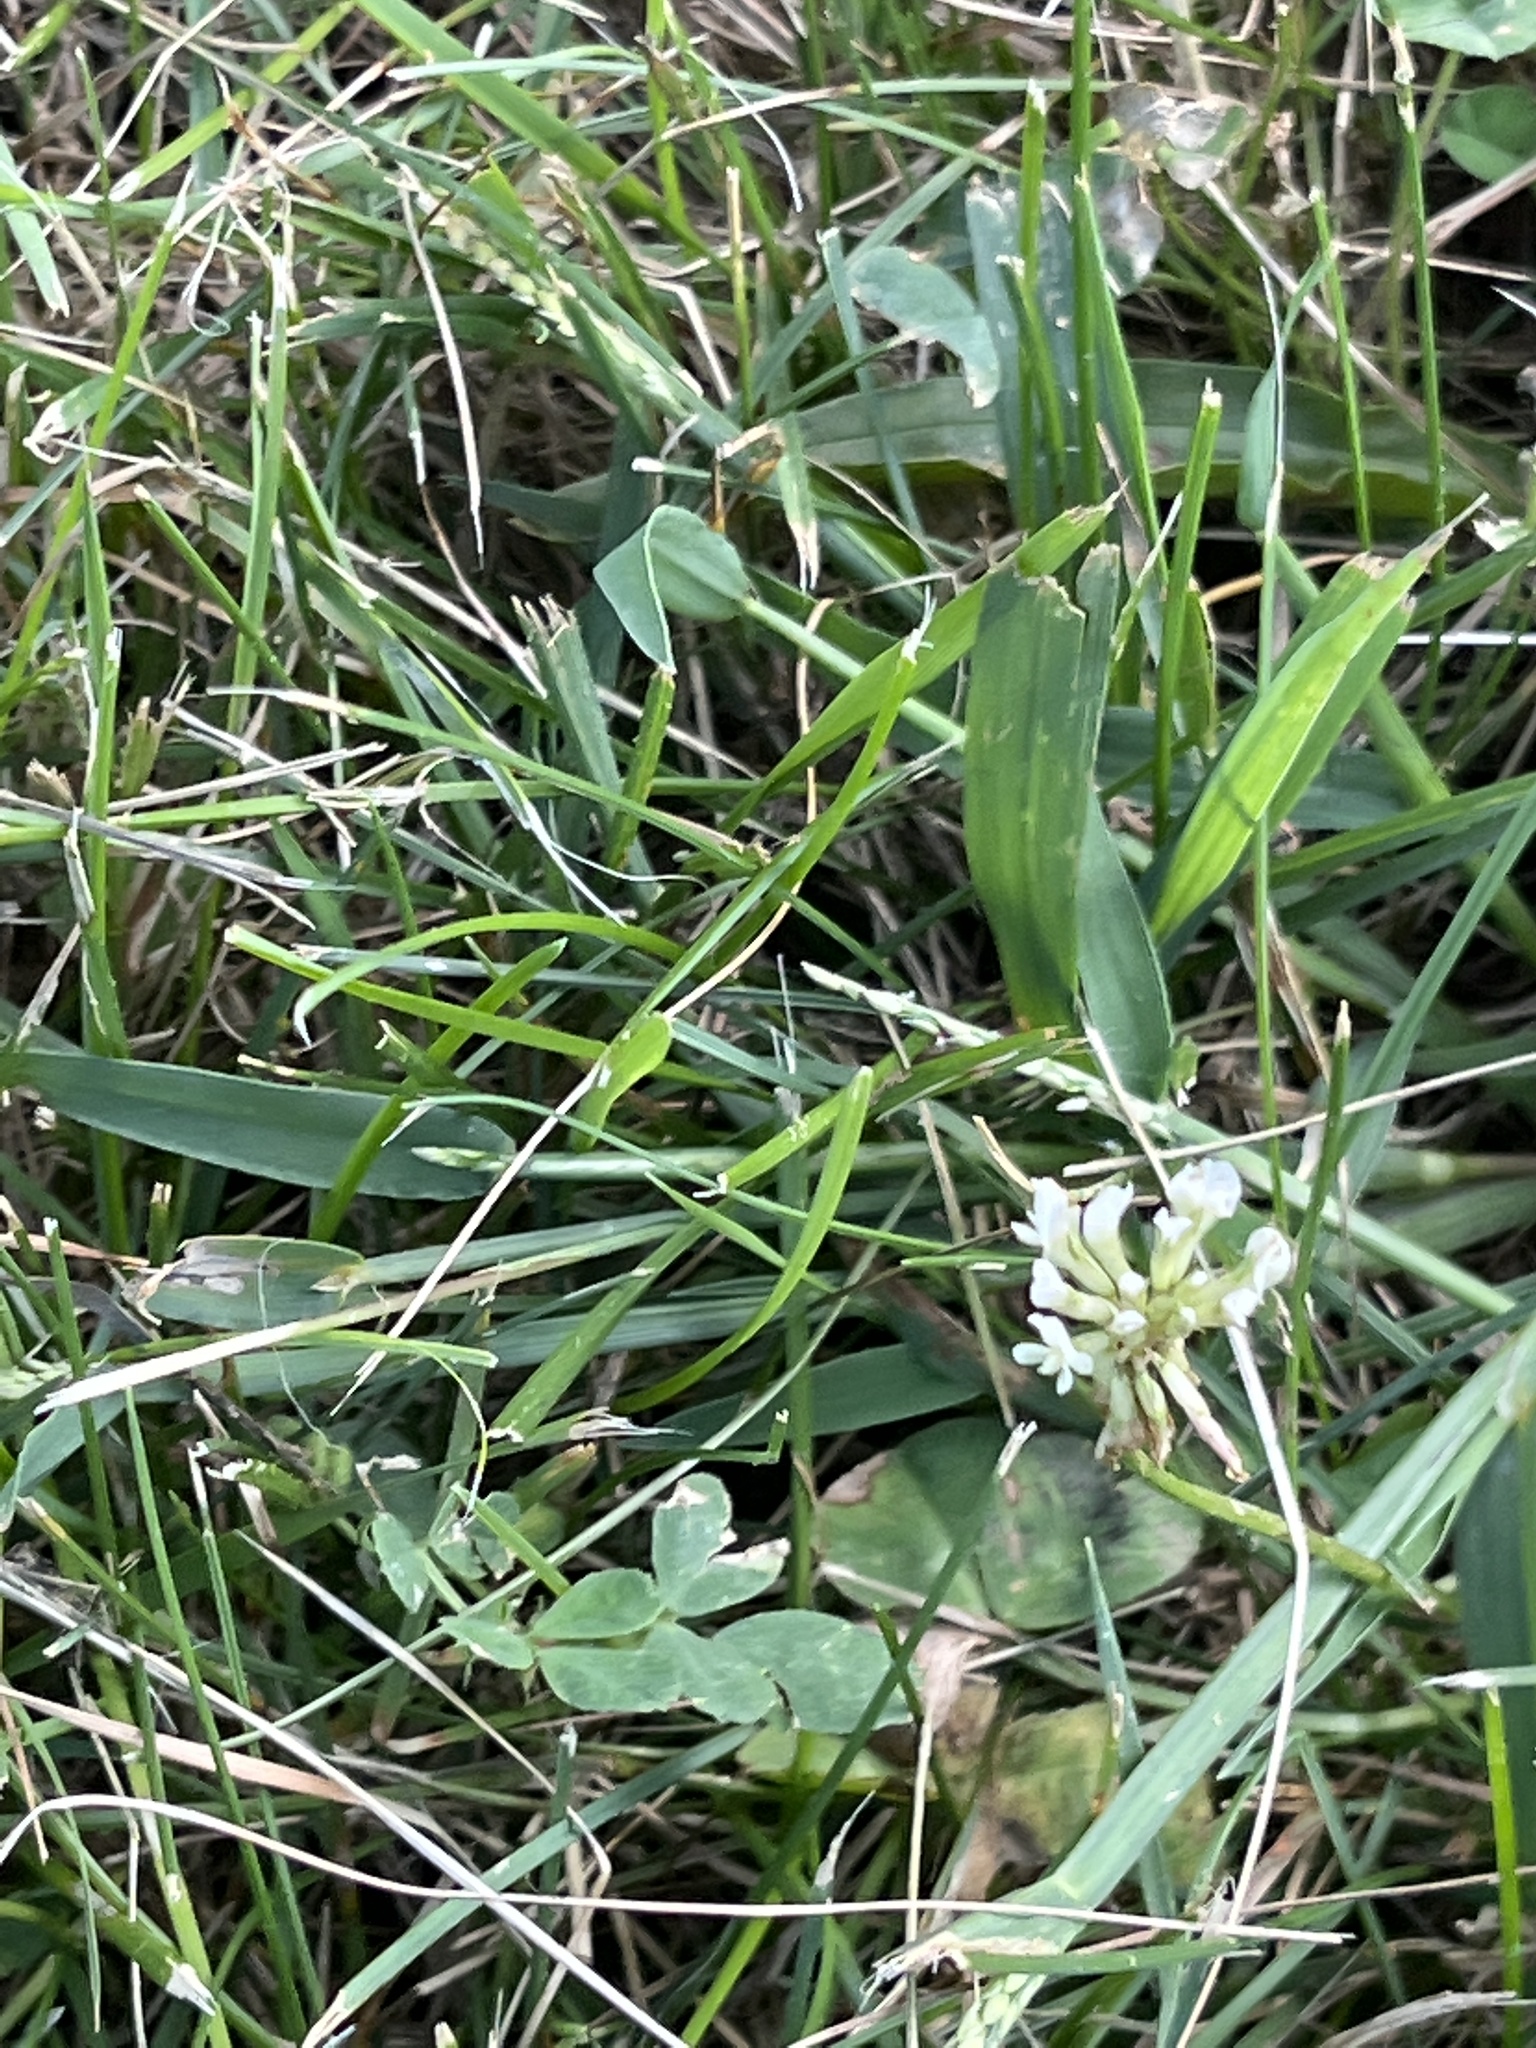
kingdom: Plantae
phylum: Tracheophyta
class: Magnoliopsida
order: Fabales
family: Fabaceae
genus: Trifolium
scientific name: Trifolium repens
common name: White clover
